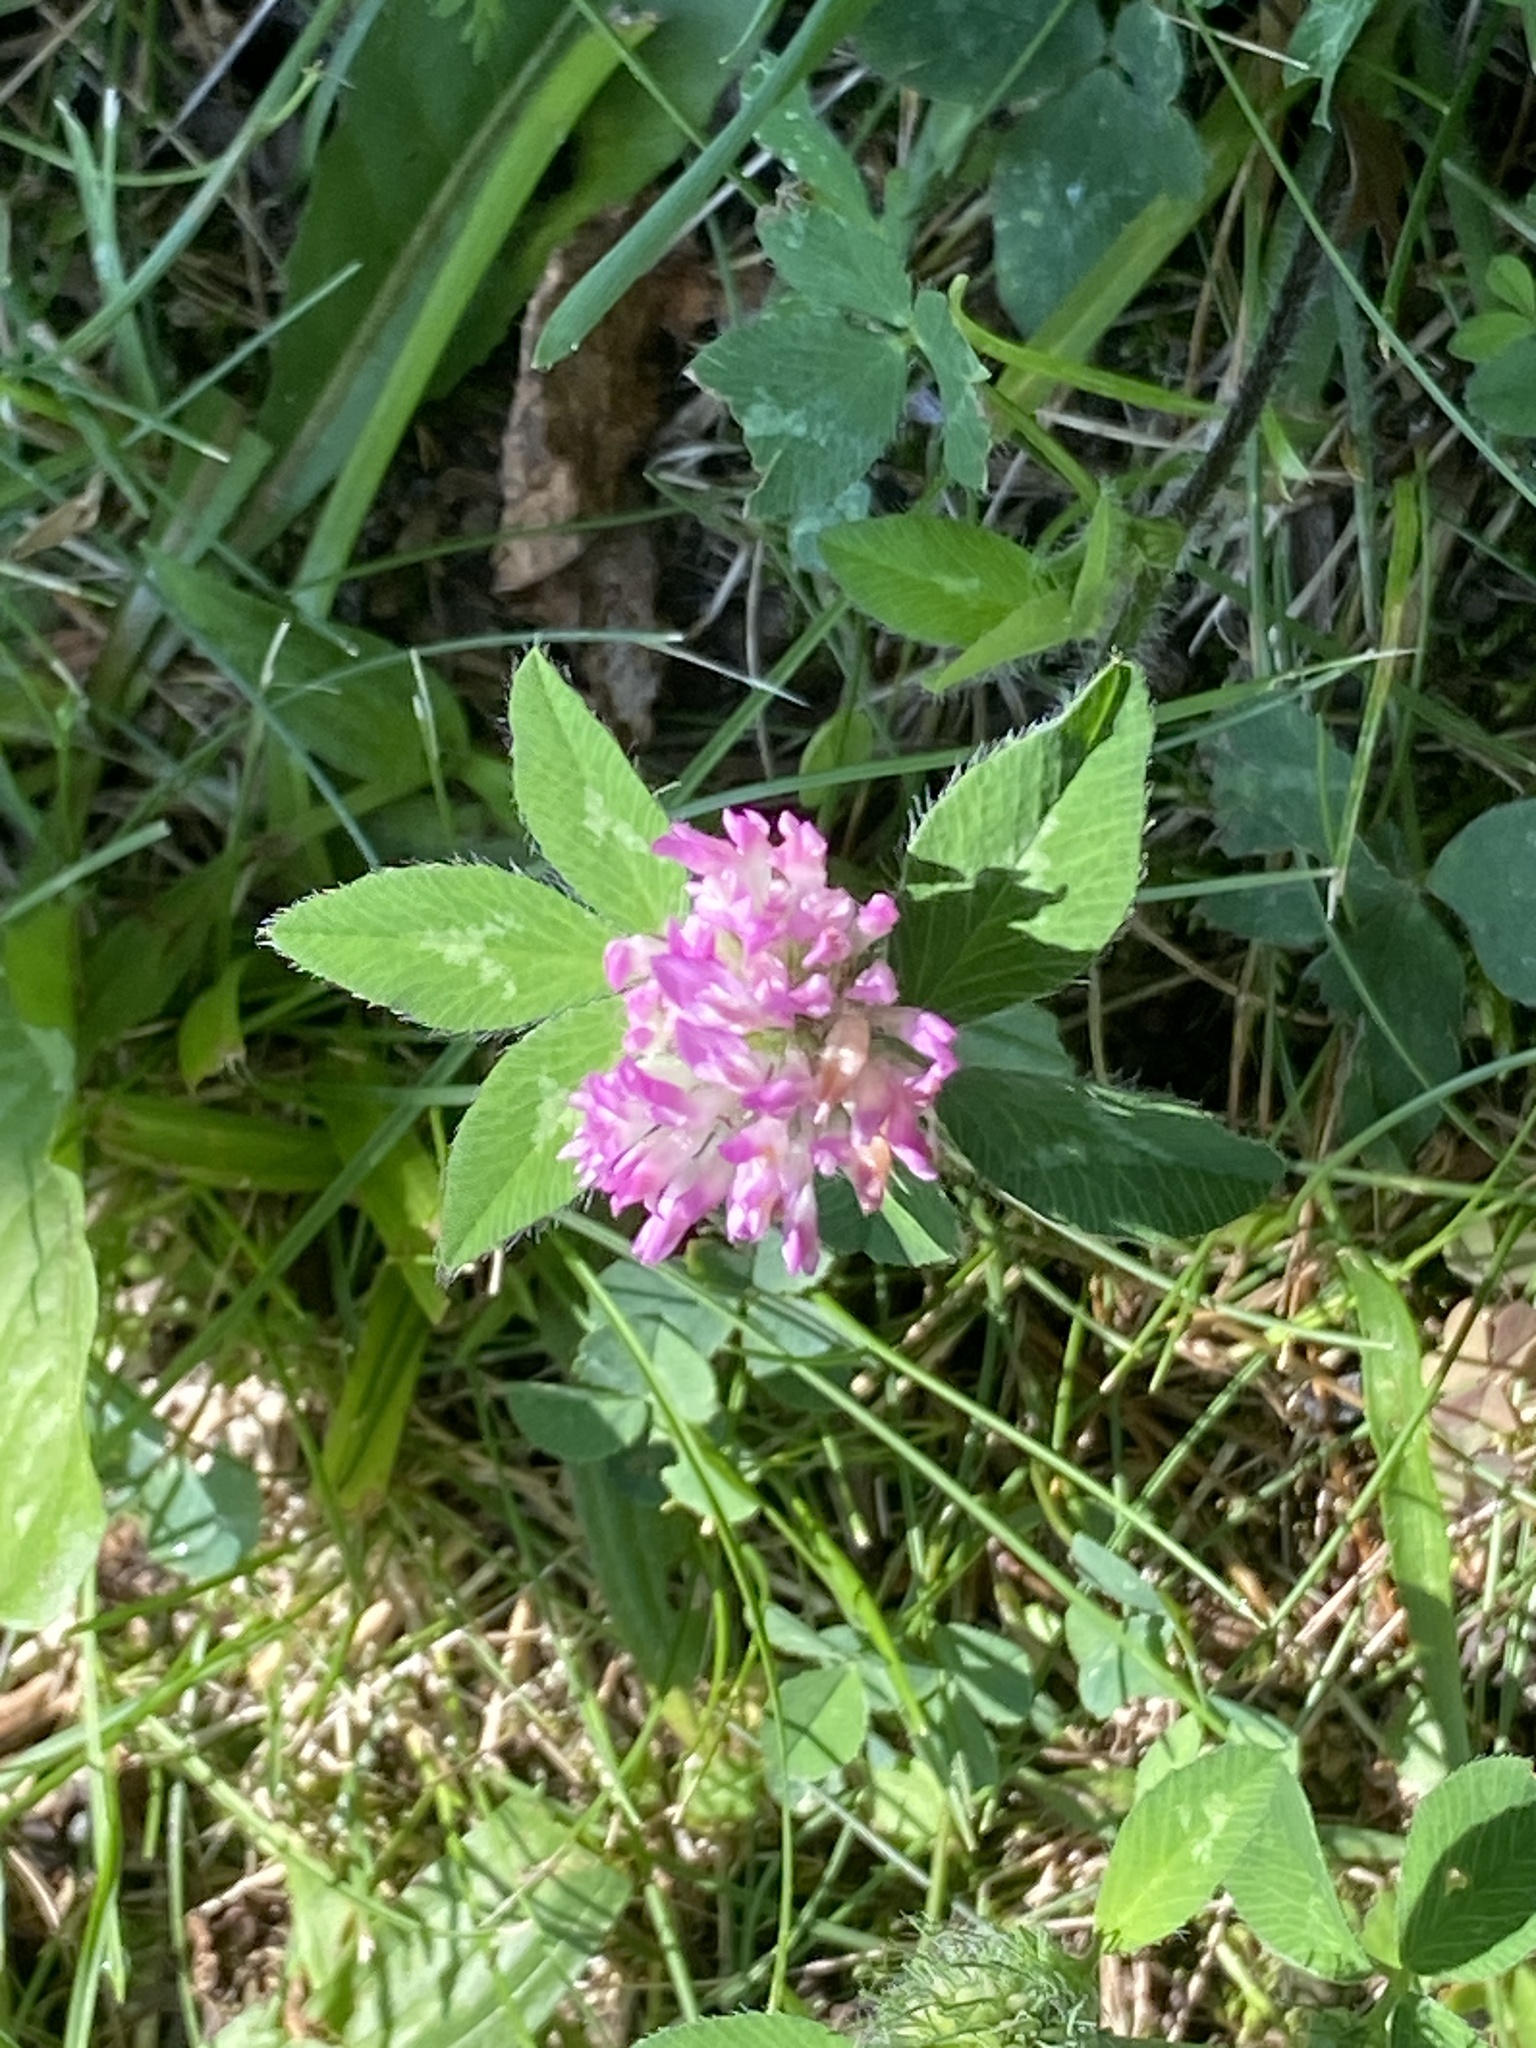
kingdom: Plantae
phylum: Tracheophyta
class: Magnoliopsida
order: Fabales
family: Fabaceae
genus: Trifolium
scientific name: Trifolium pratense
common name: Red clover
